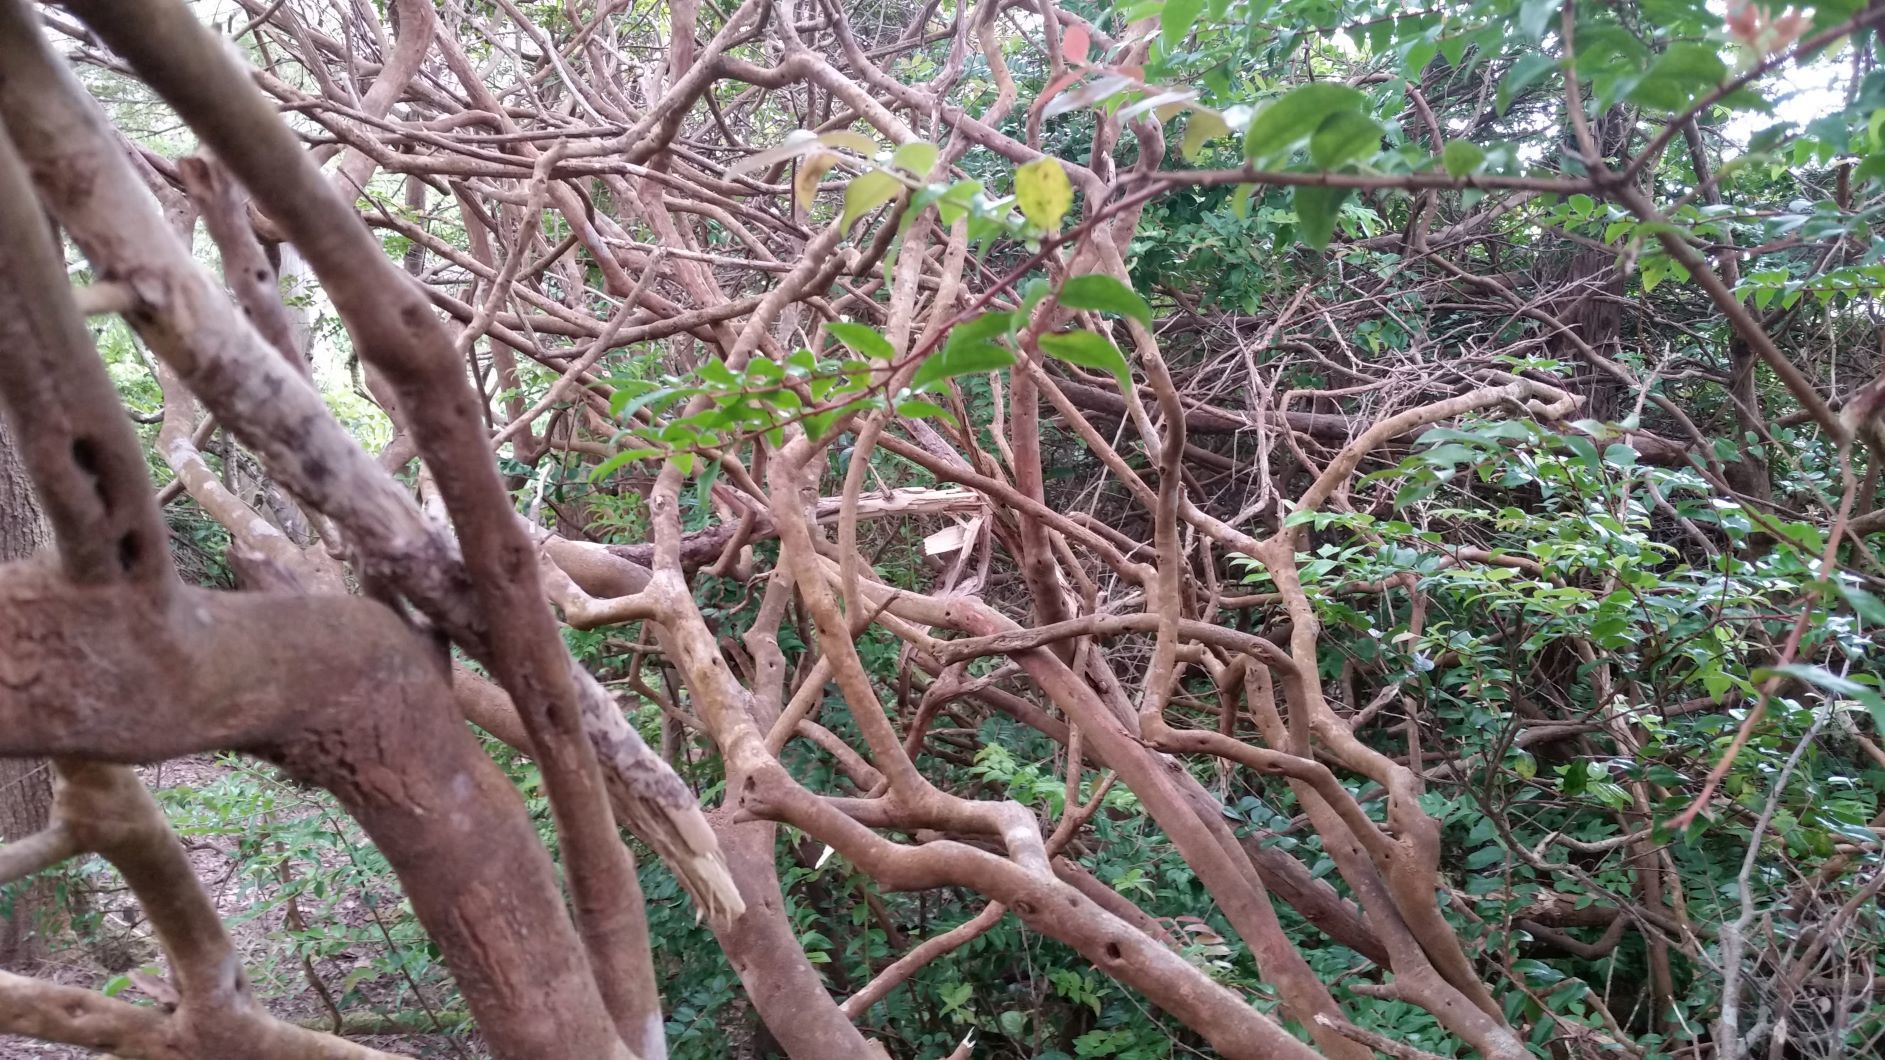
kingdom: Plantae
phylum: Tracheophyta
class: Magnoliopsida
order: Ericales
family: Ericaceae
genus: Vaccinium
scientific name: Vaccinium ovatum
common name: California-huckleberry
